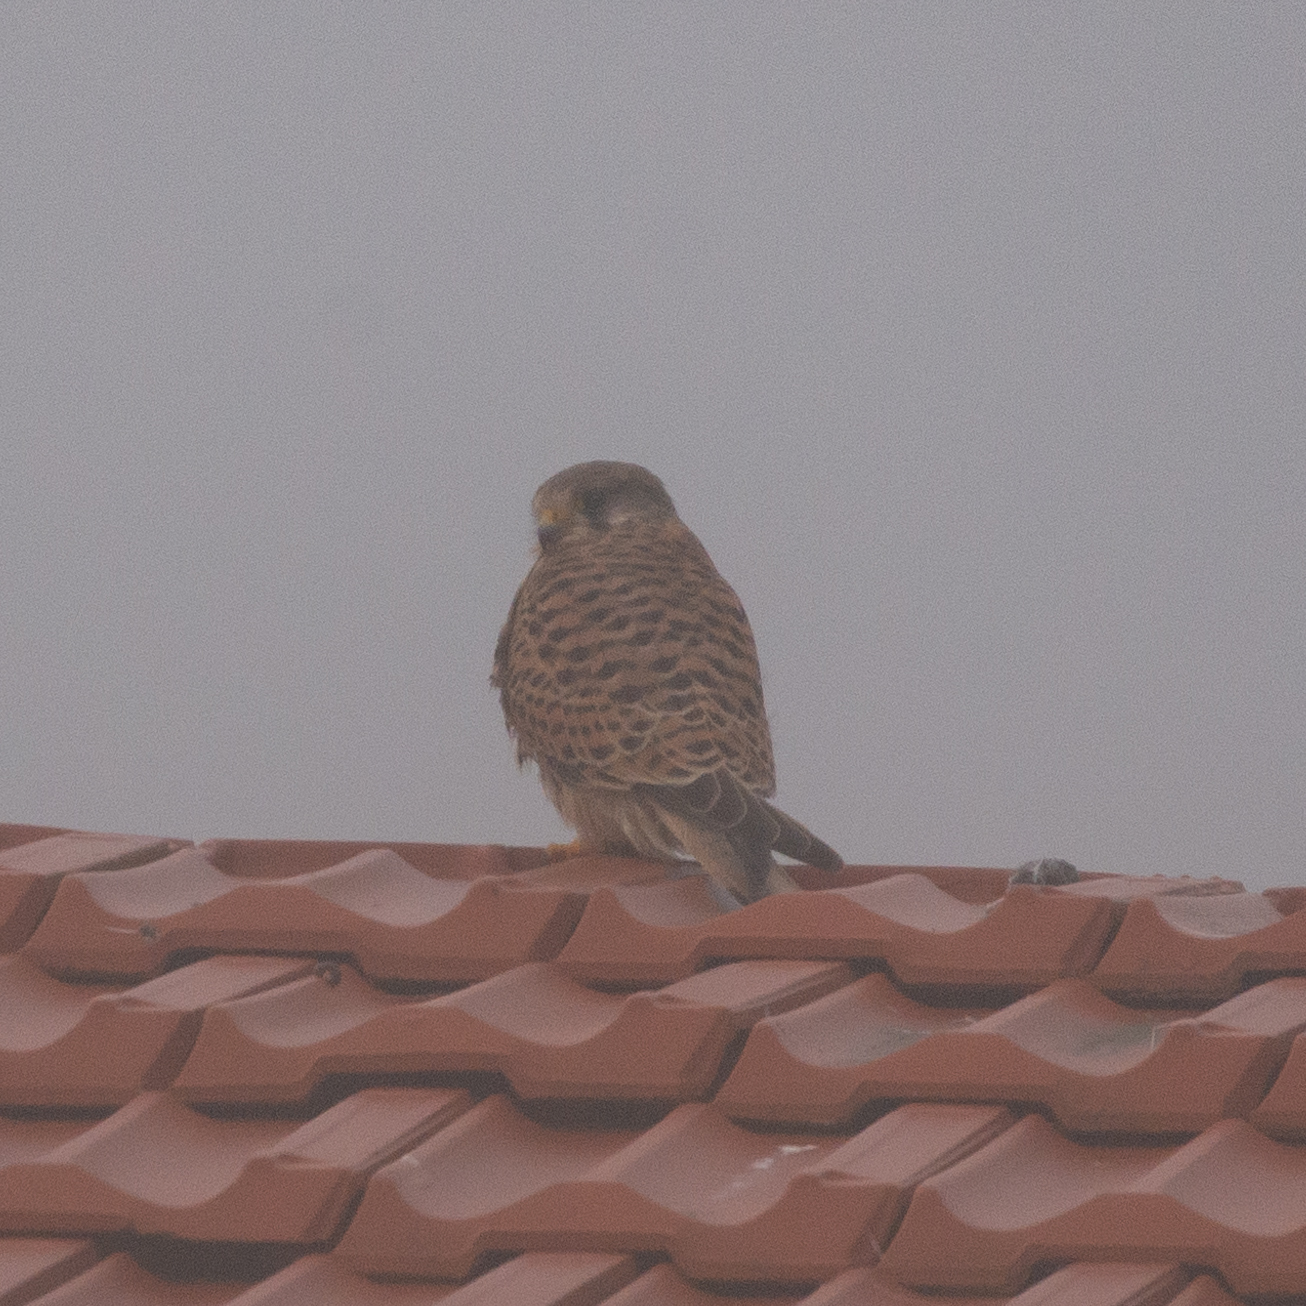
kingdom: Animalia
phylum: Chordata
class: Aves
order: Falconiformes
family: Falconidae
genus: Falco
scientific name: Falco tinnunculus
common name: Common kestrel
